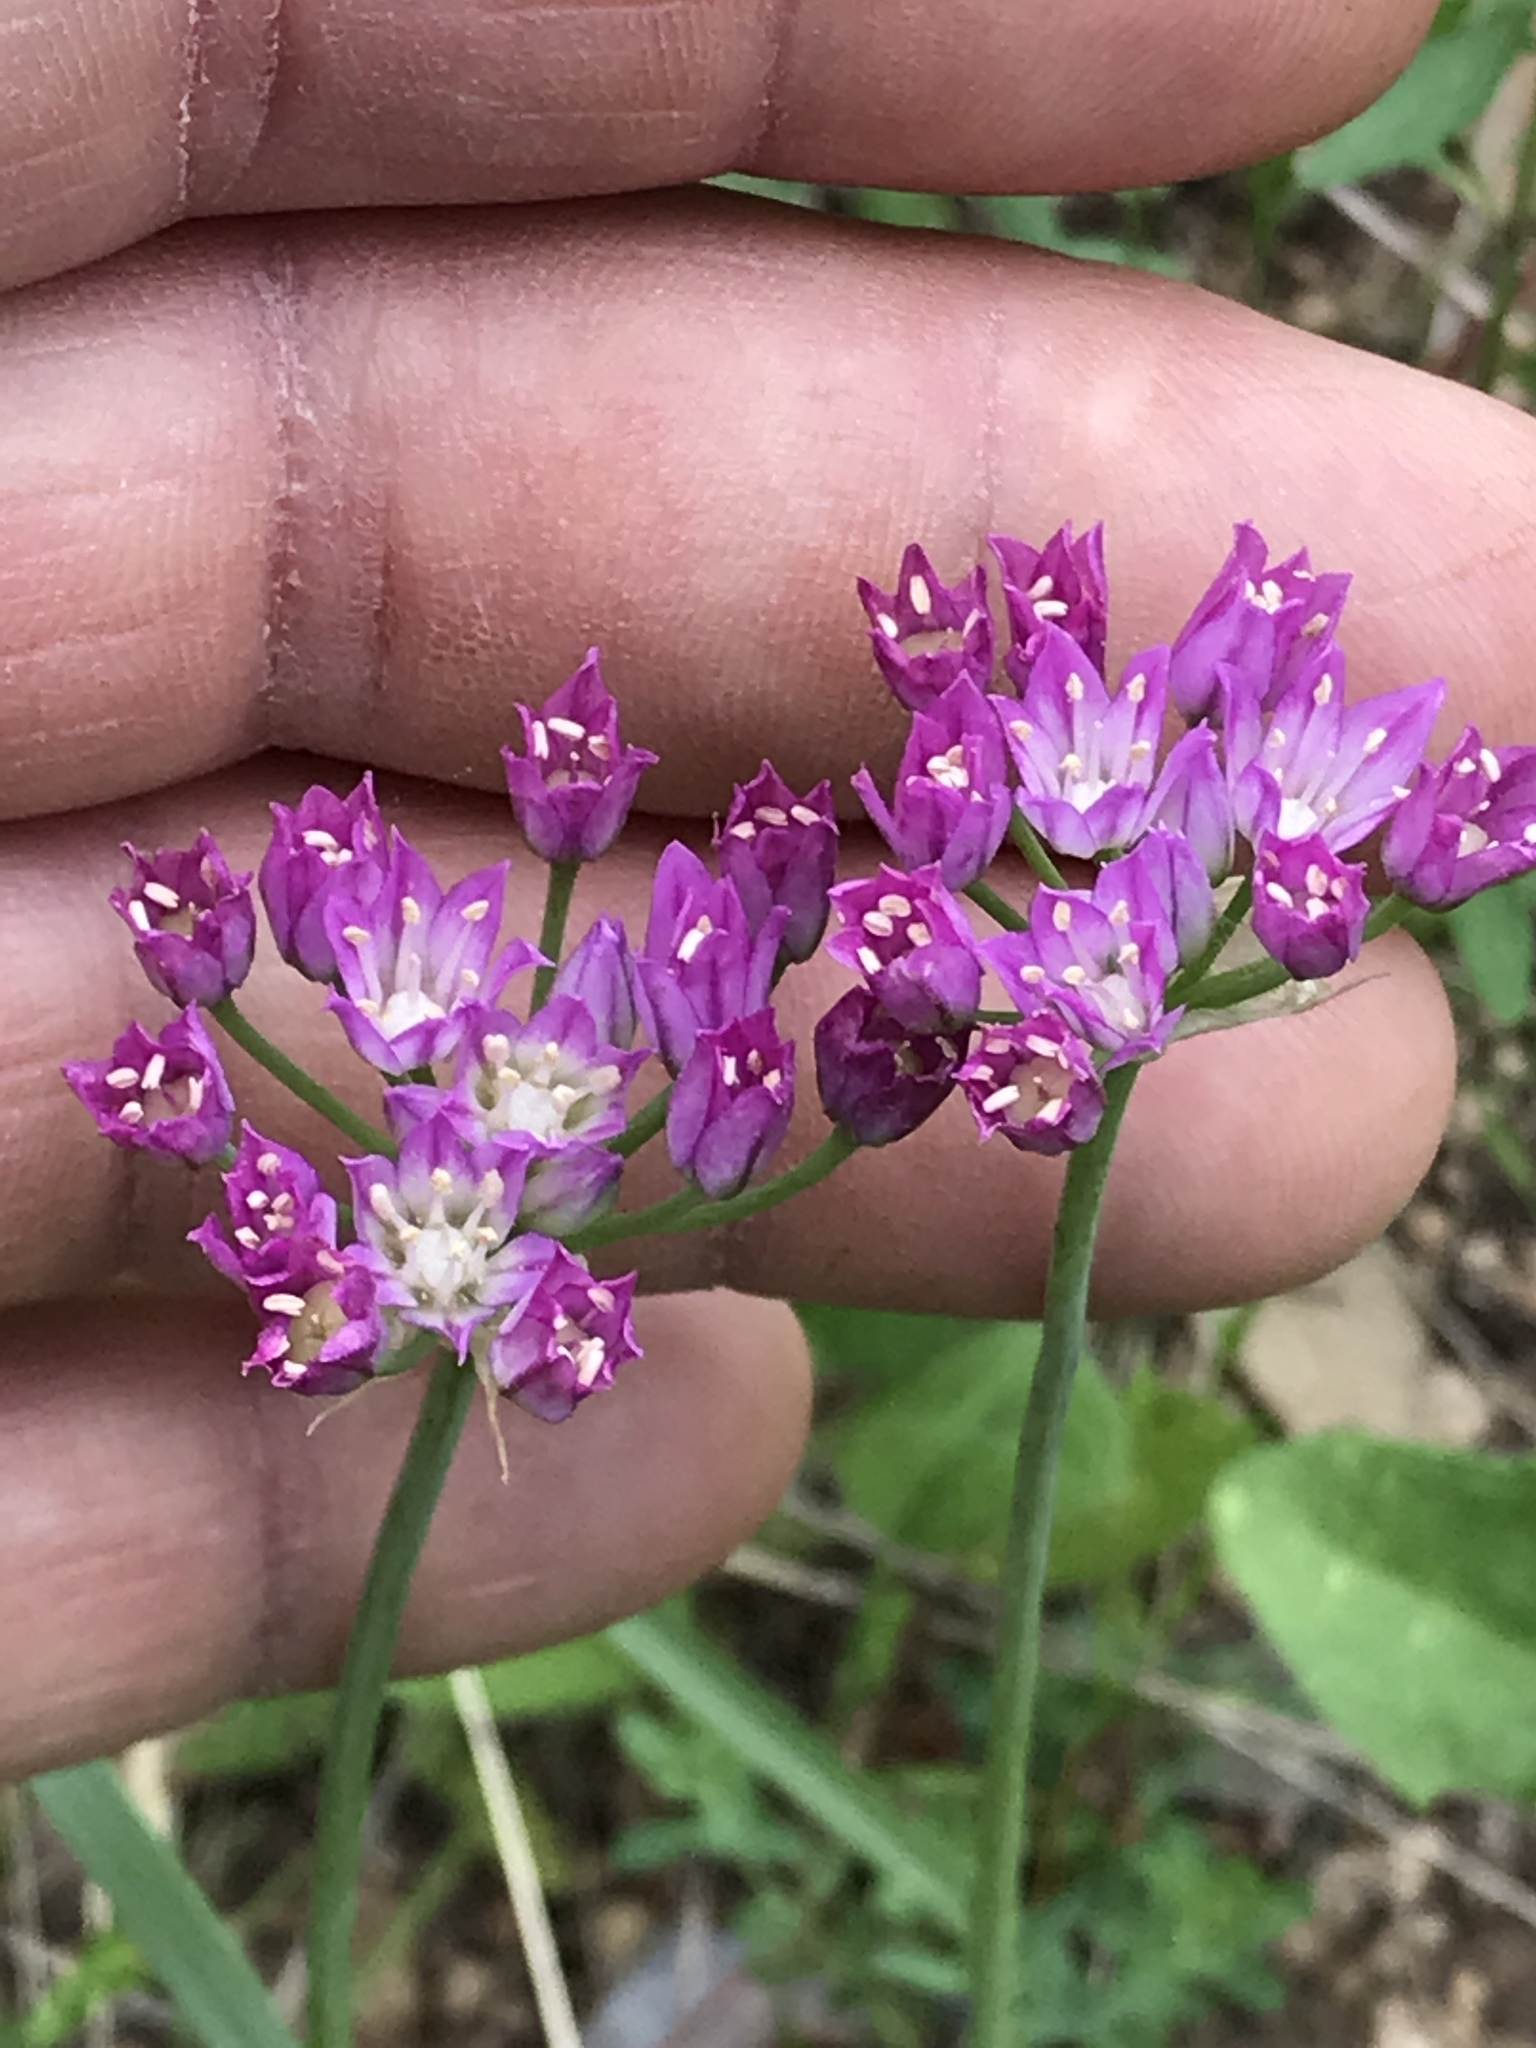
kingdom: Plantae
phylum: Tracheophyta
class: Liliopsida
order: Asparagales
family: Amaryllidaceae
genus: Allium
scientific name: Allium drummondii
